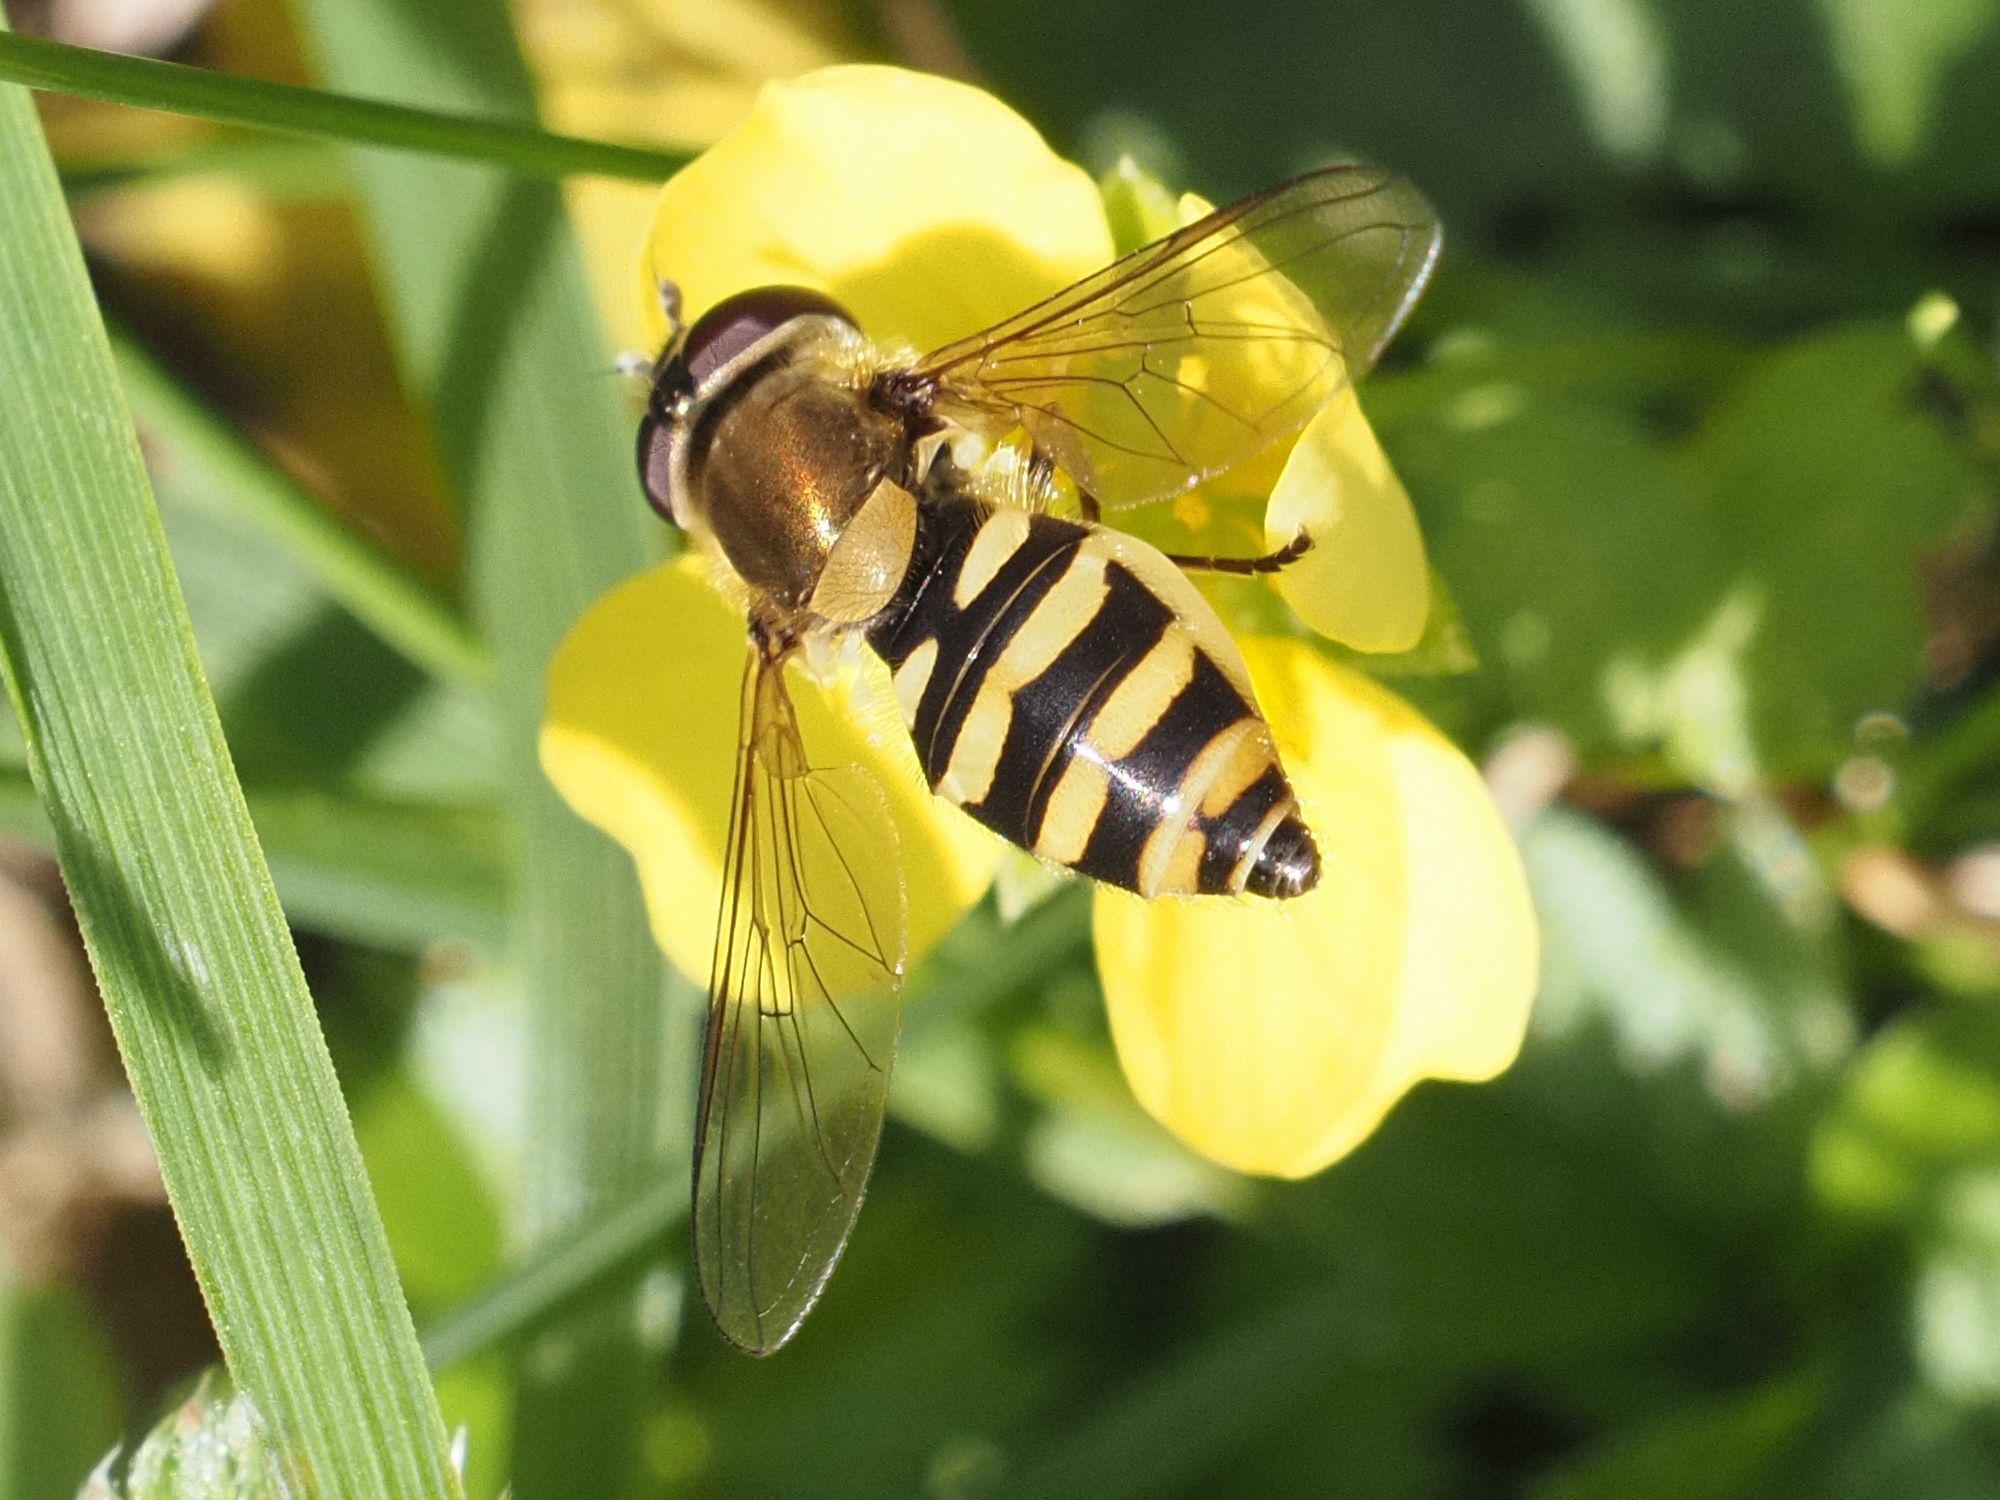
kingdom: Animalia
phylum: Arthropoda
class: Insecta
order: Diptera
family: Syrphidae
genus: Syrphus
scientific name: Syrphus
